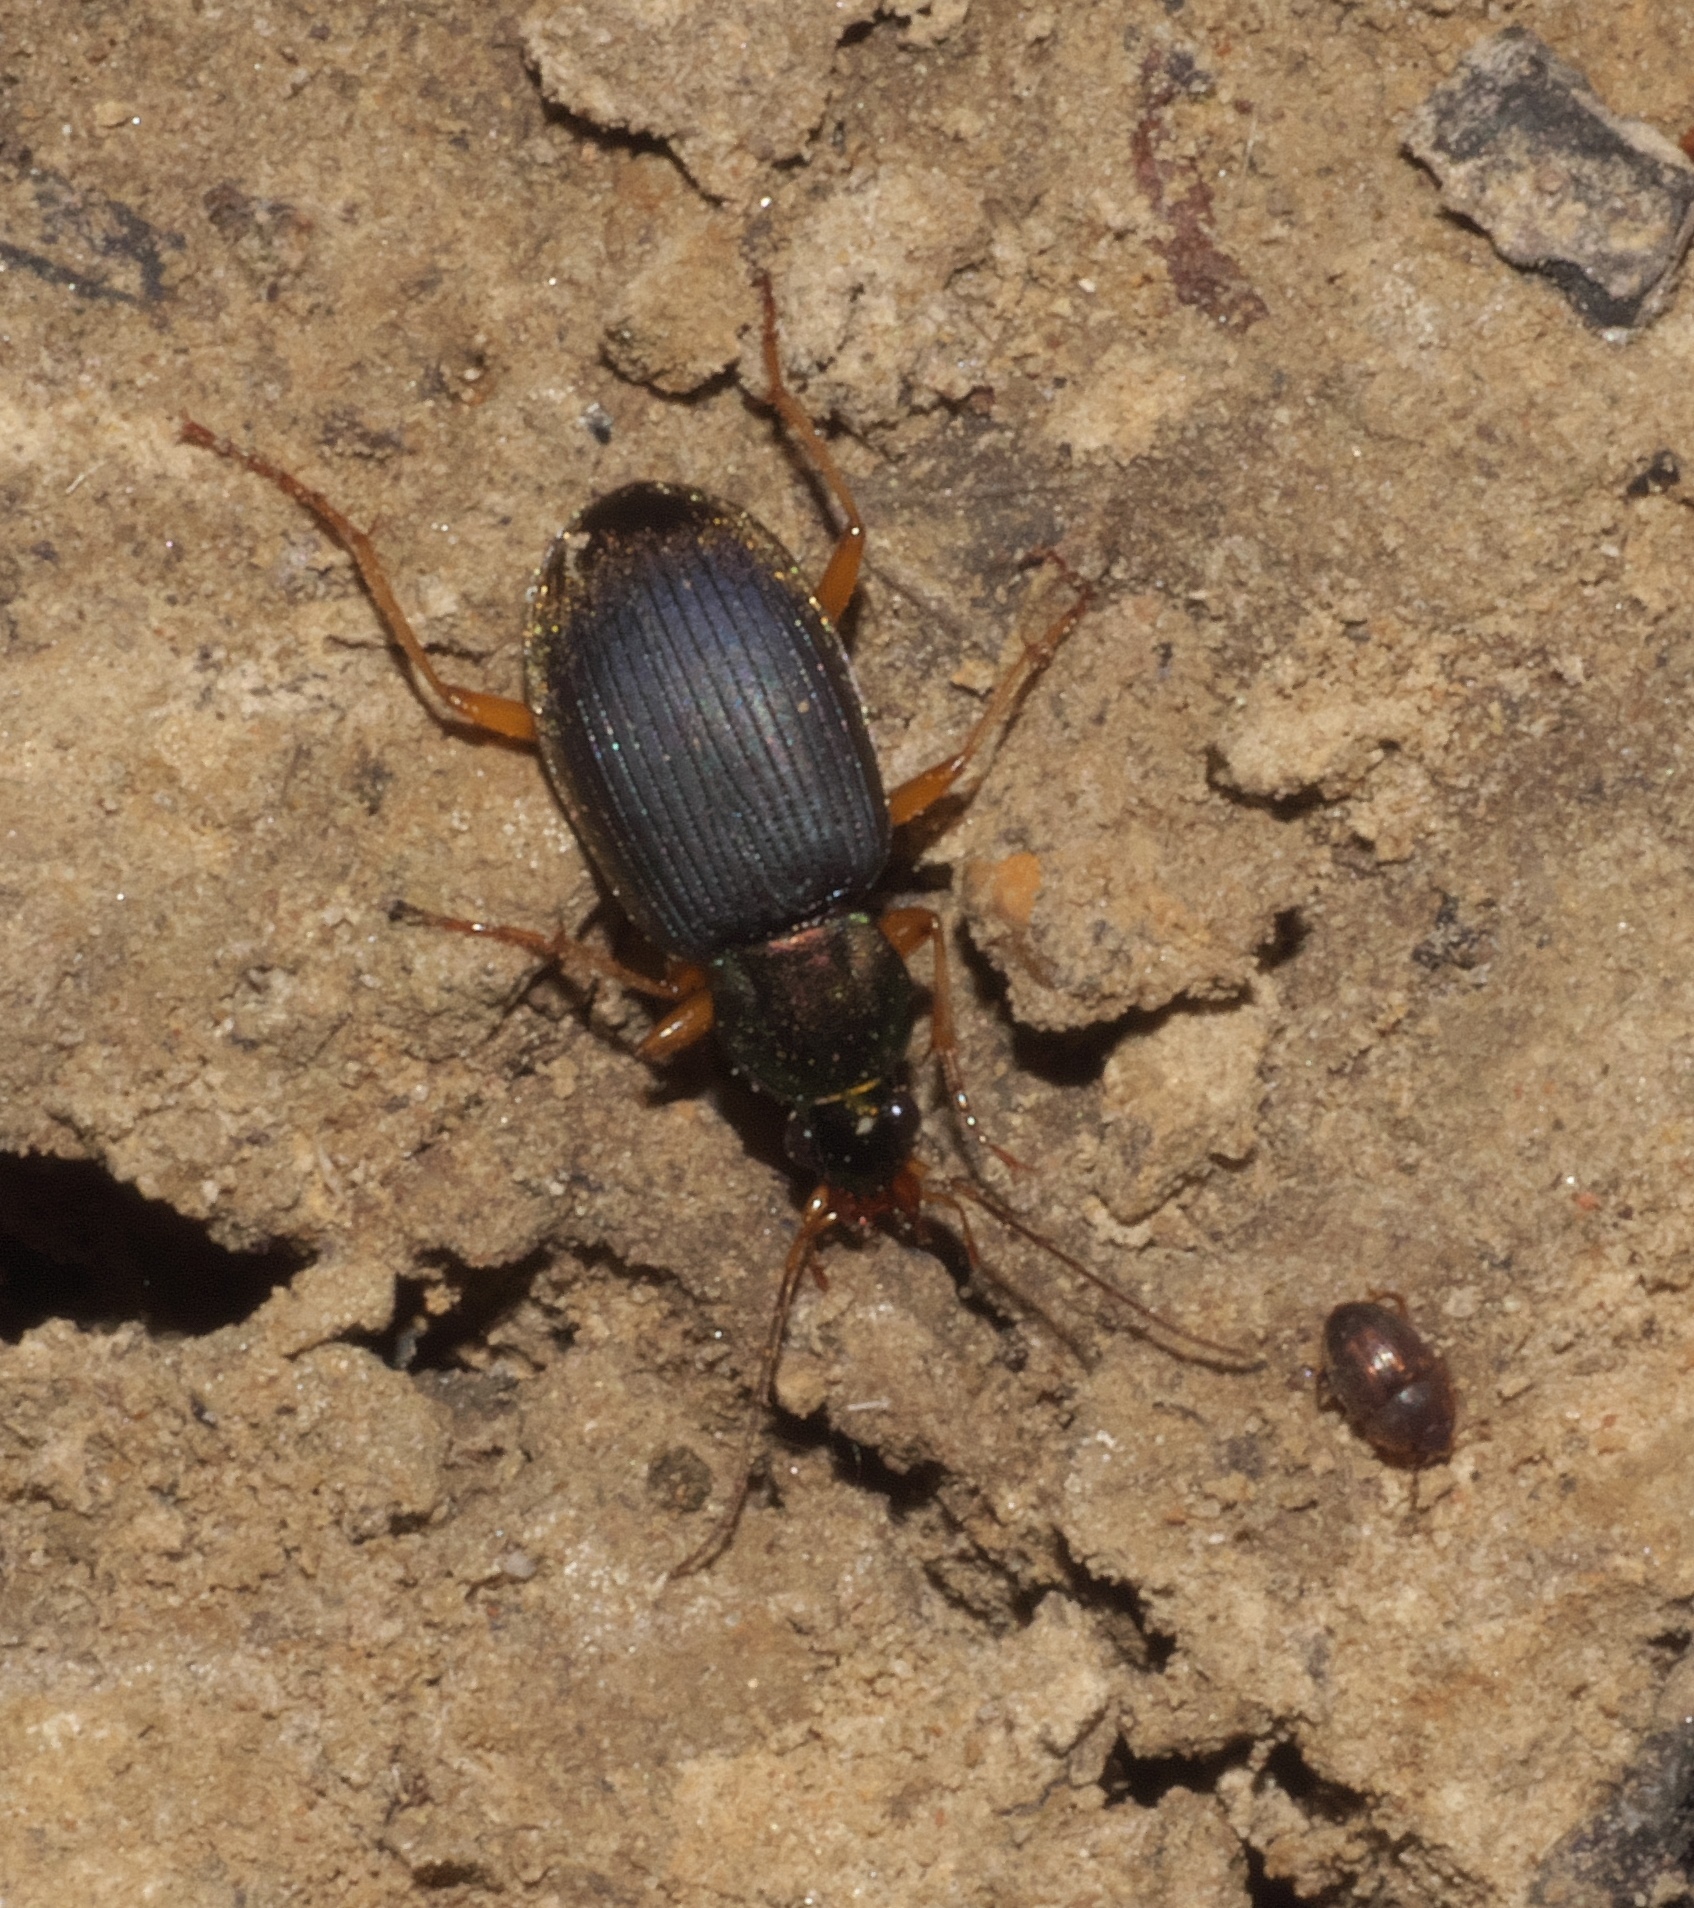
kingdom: Animalia
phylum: Arthropoda
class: Insecta
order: Coleoptera
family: Carabidae
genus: Chlaenius
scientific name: Chlaenius aestivus
